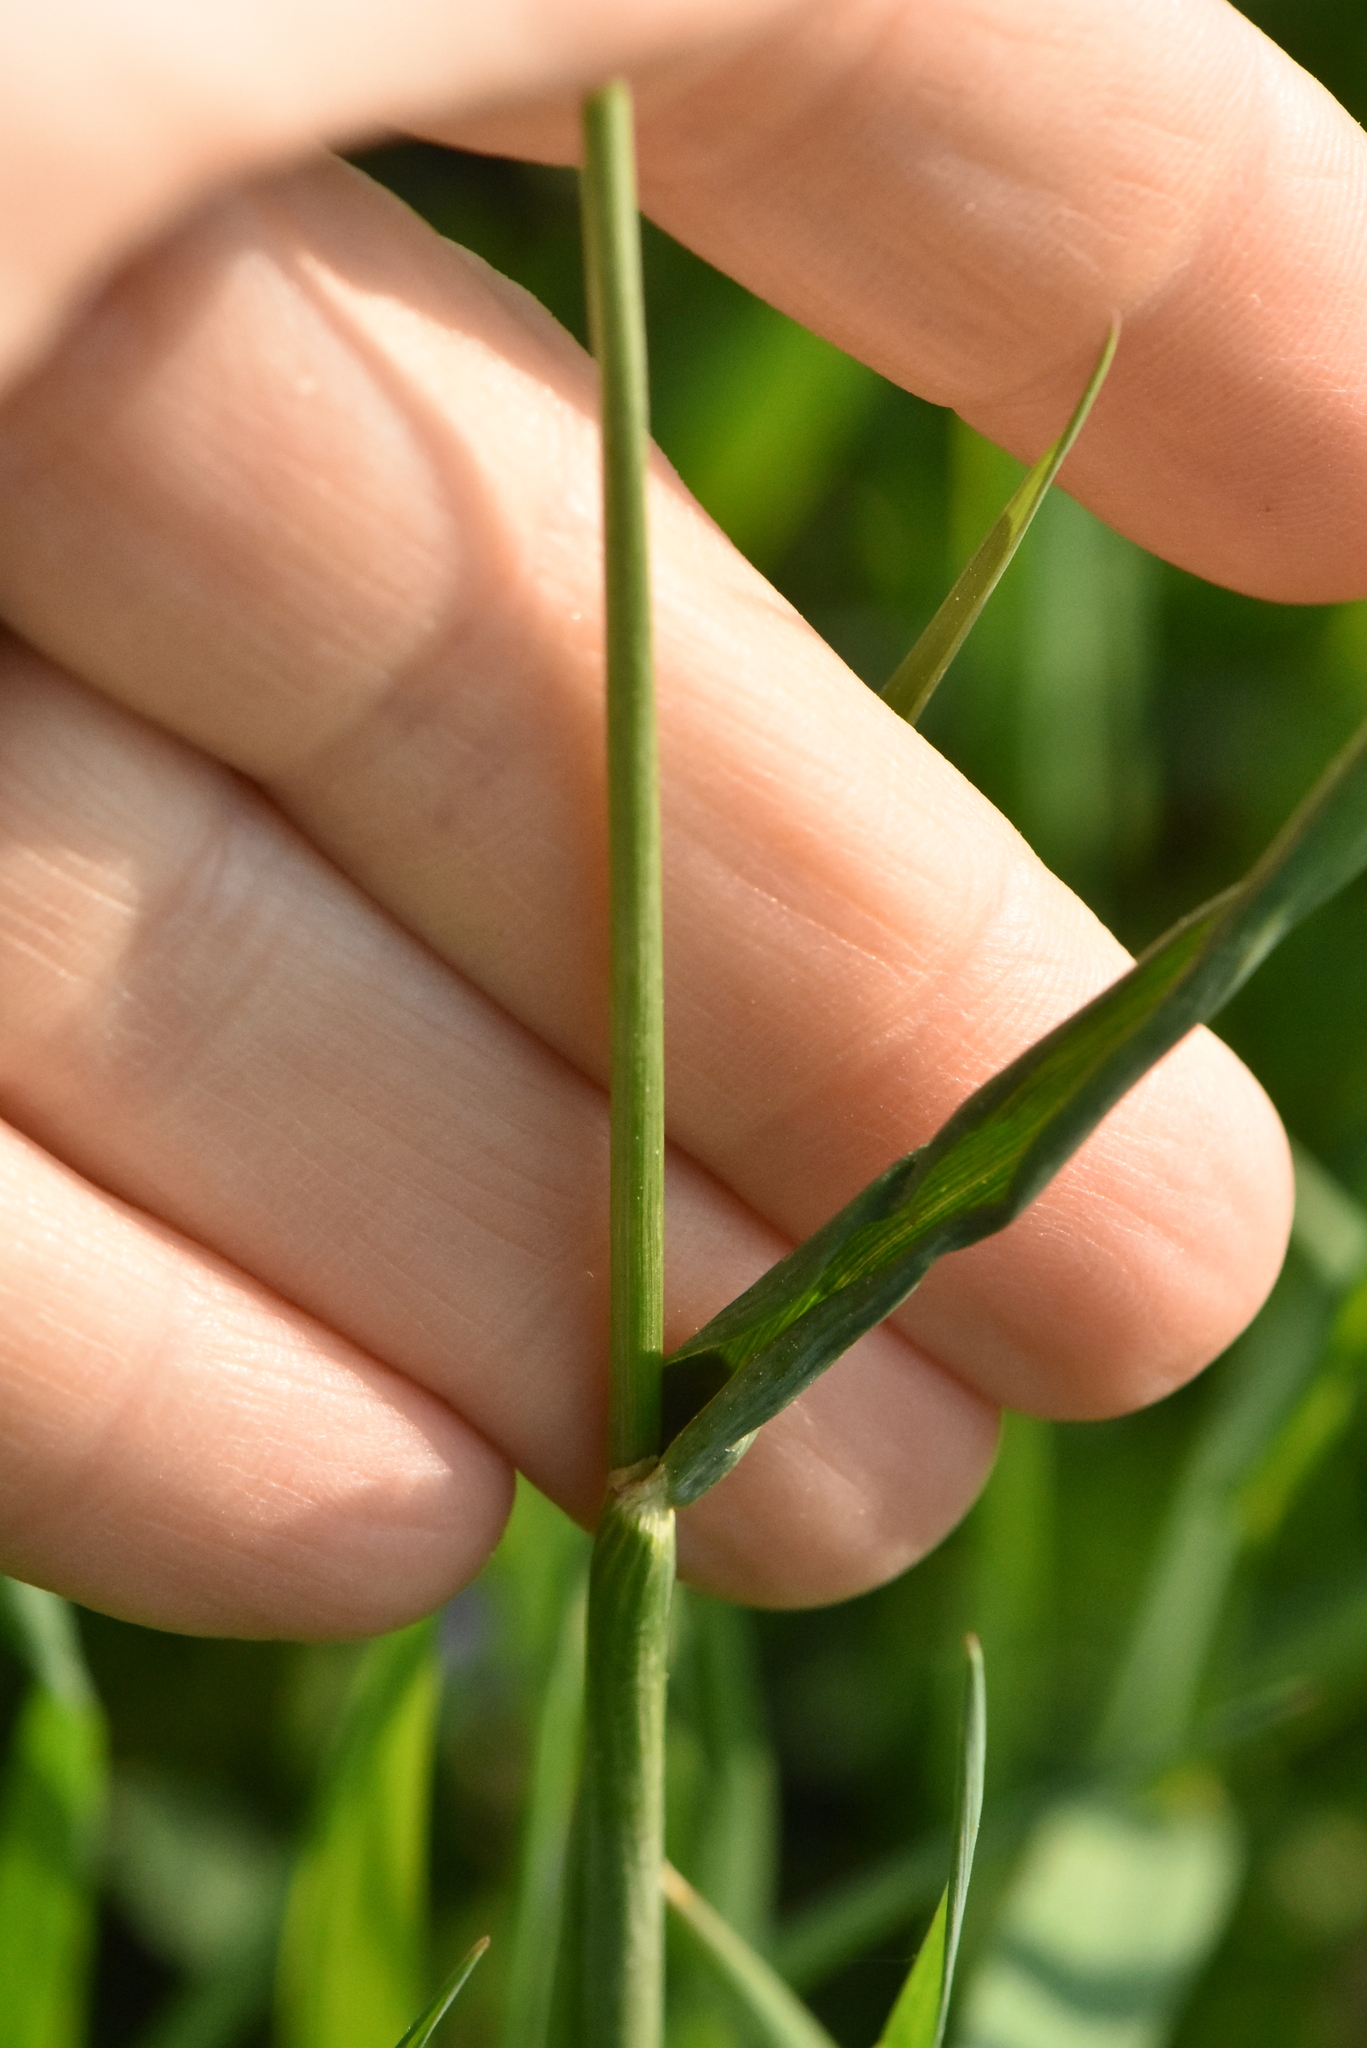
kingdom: Plantae
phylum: Tracheophyta
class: Liliopsida
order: Poales
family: Poaceae
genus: Alopecurus
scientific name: Alopecurus pratensis
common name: Meadow foxtail
